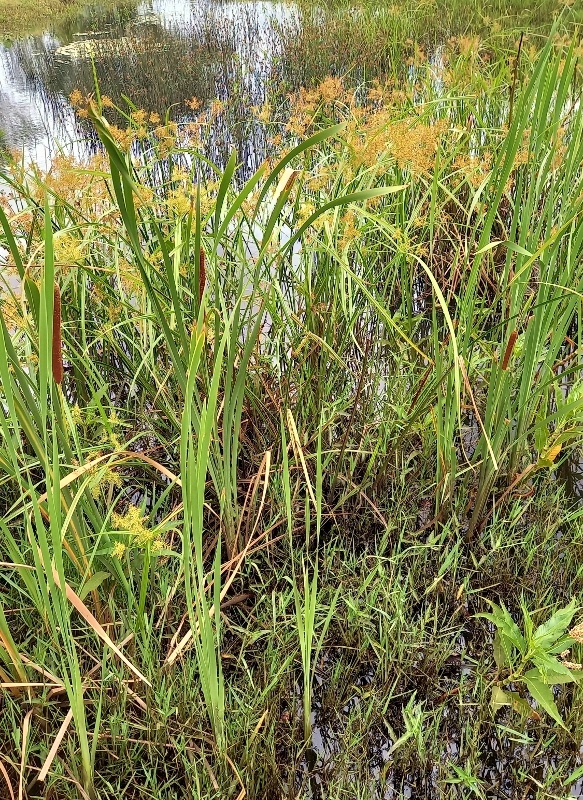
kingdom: Plantae
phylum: Tracheophyta
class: Liliopsida
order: Poales
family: Cyperaceae
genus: Cyperus
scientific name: Cyperus digitatus
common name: Finger flatsedge
